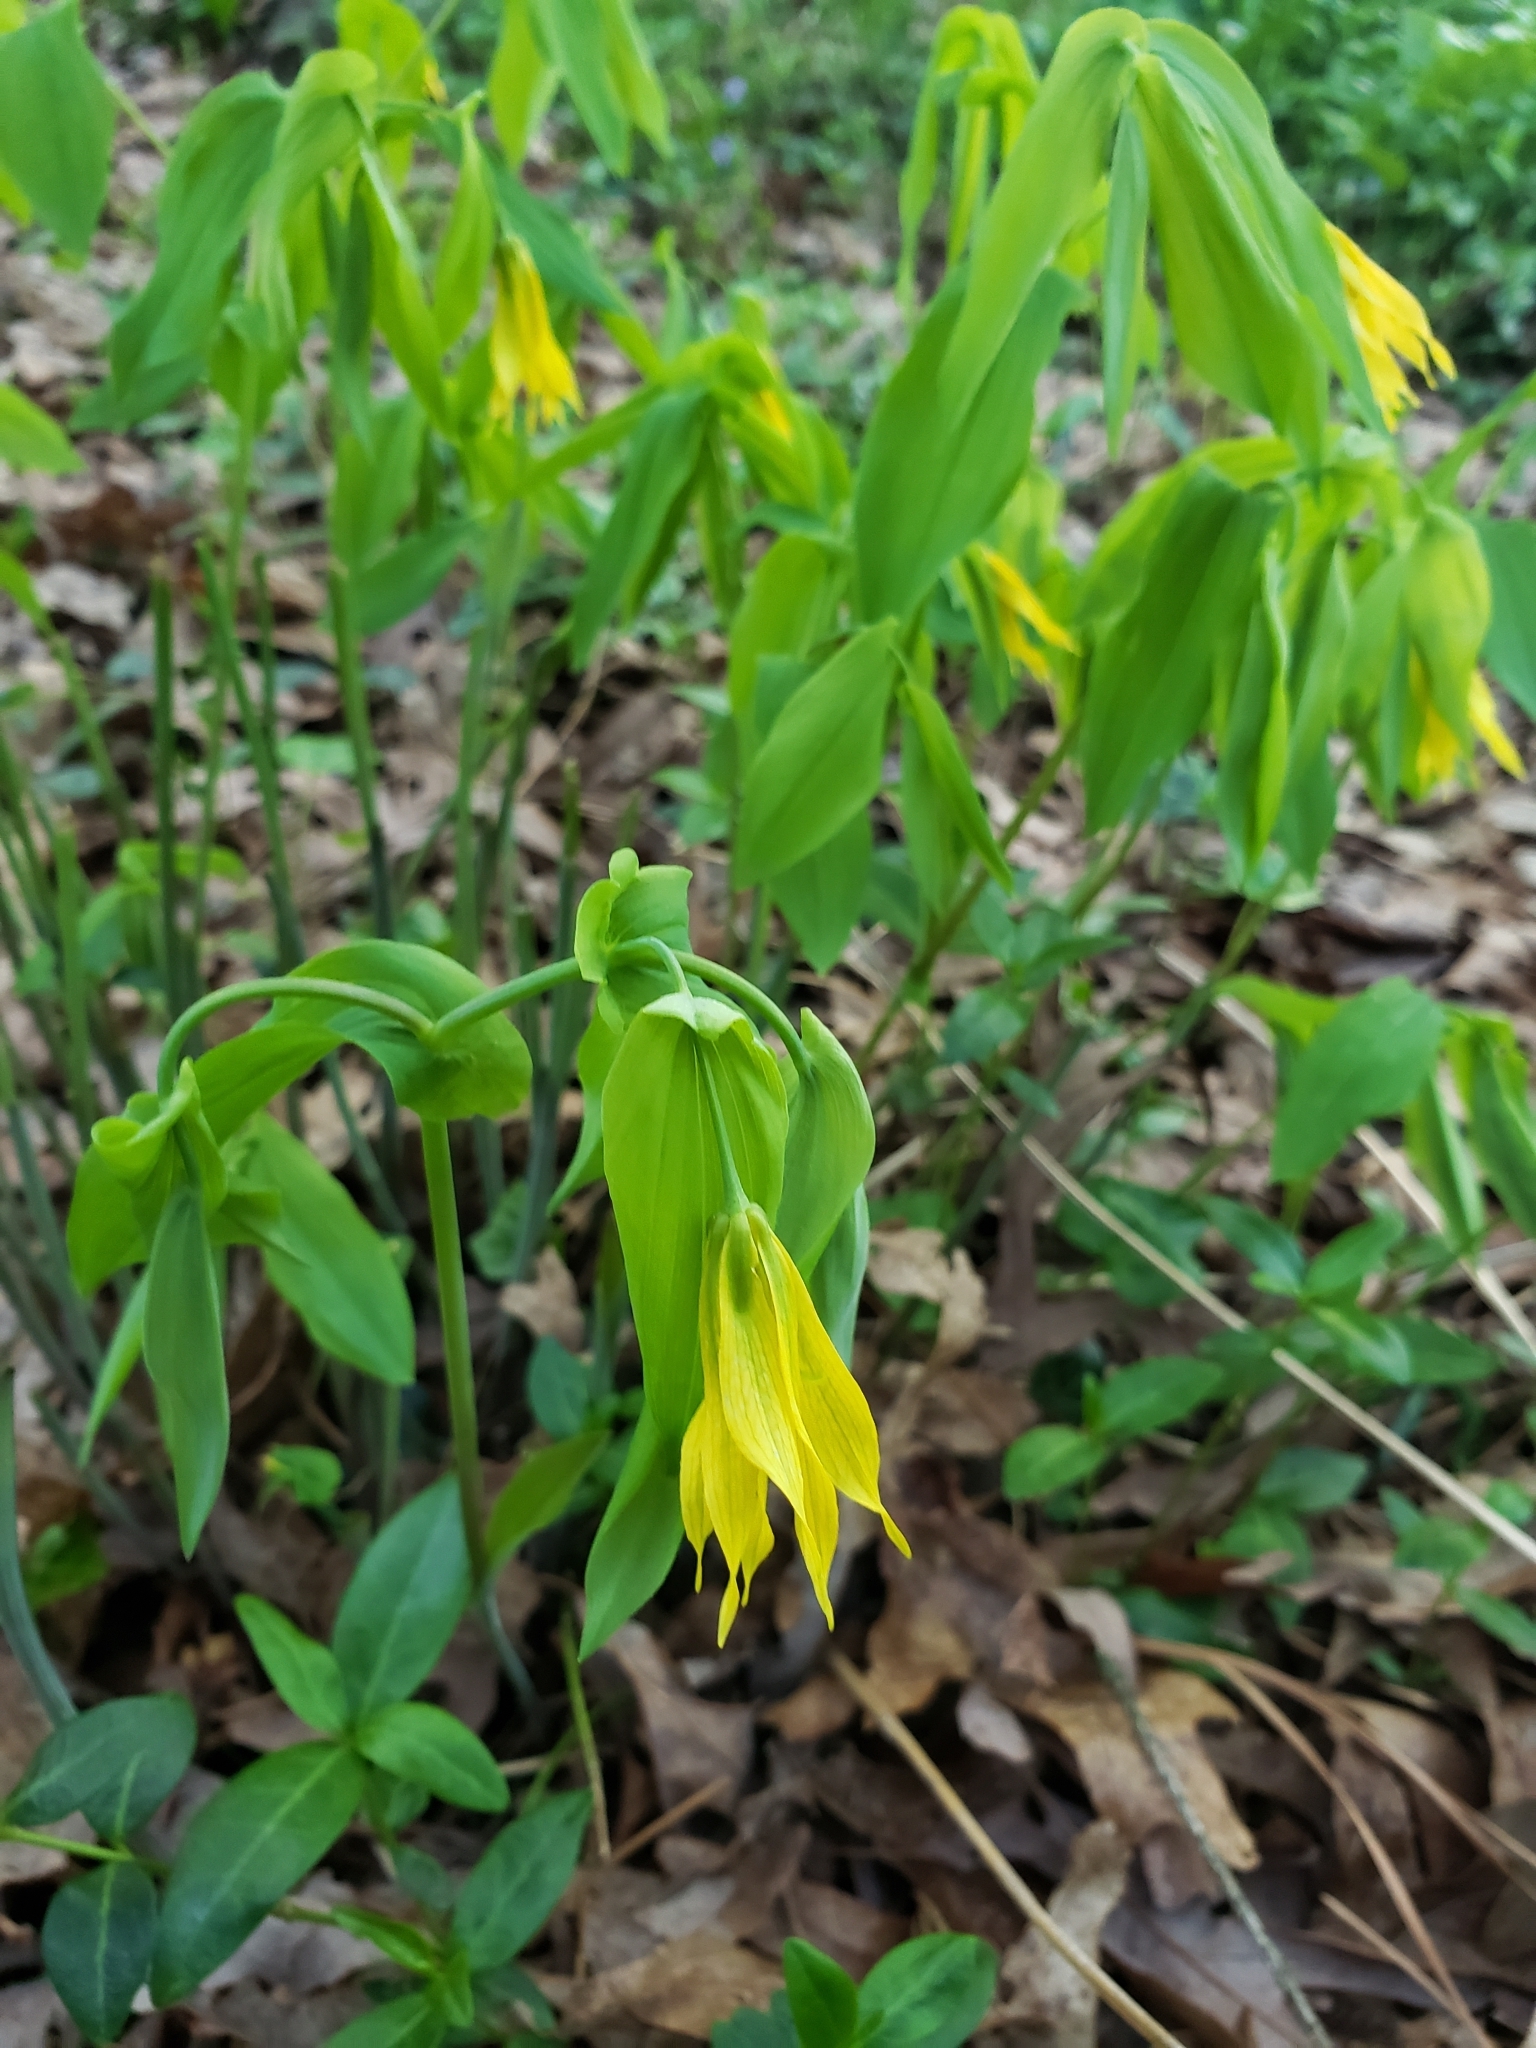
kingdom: Plantae
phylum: Tracheophyta
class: Liliopsida
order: Liliales
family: Colchicaceae
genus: Uvularia
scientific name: Uvularia grandiflora
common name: Bellwort
